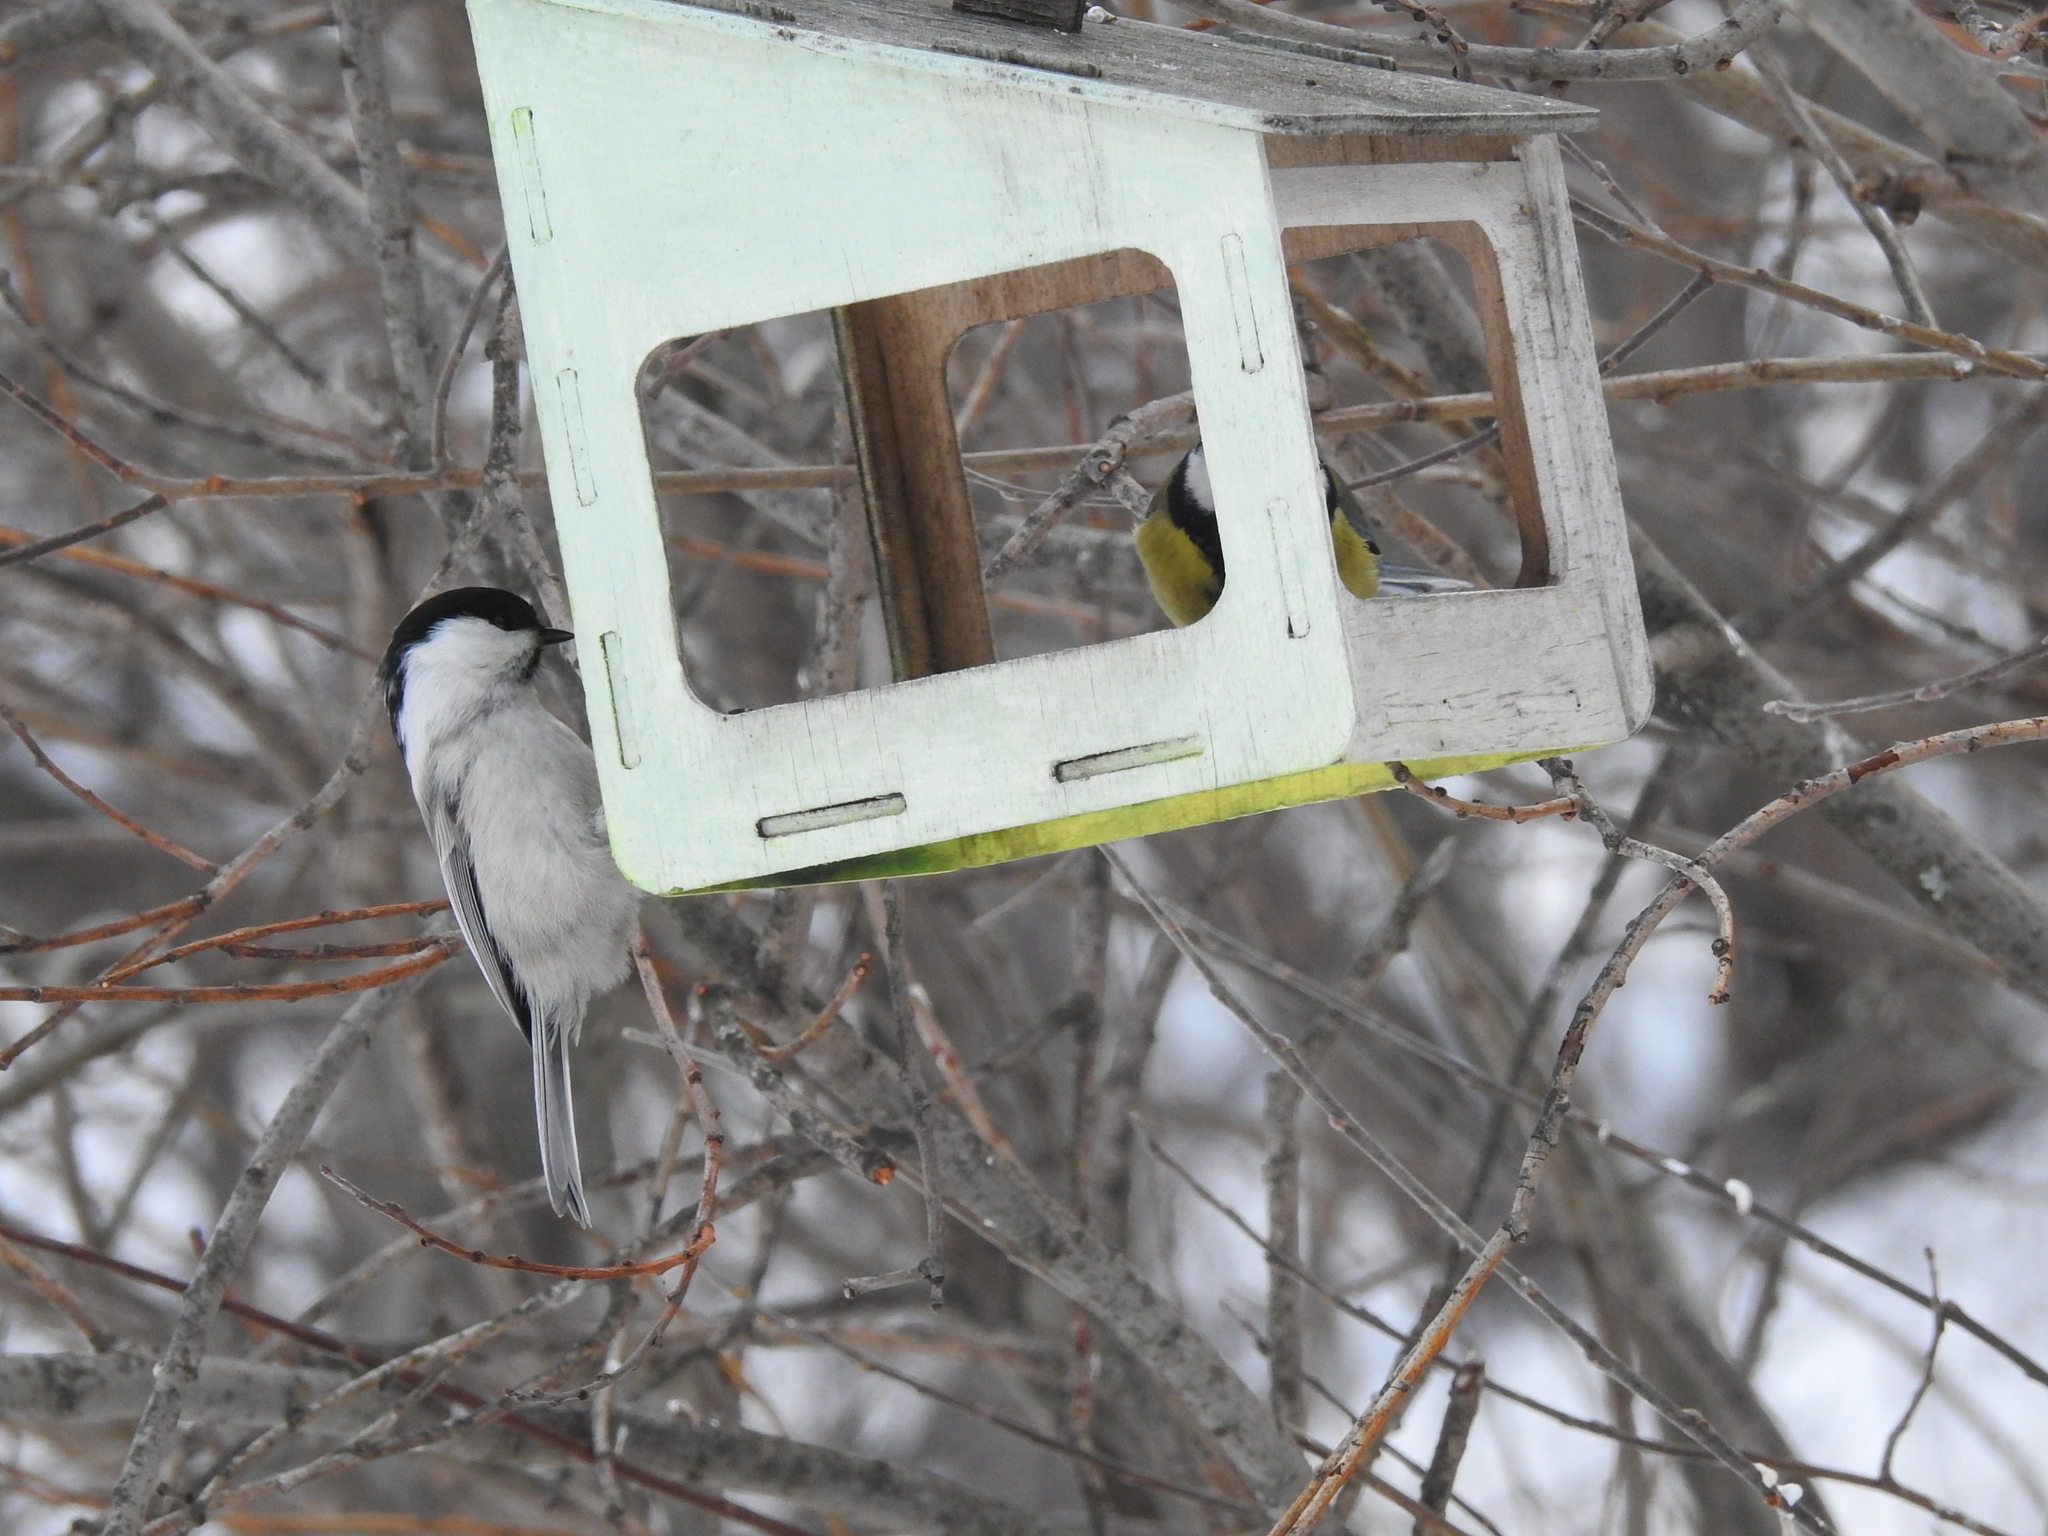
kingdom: Animalia
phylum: Chordata
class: Aves
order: Passeriformes
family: Paridae
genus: Poecile
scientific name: Poecile montanus
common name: Willow tit
